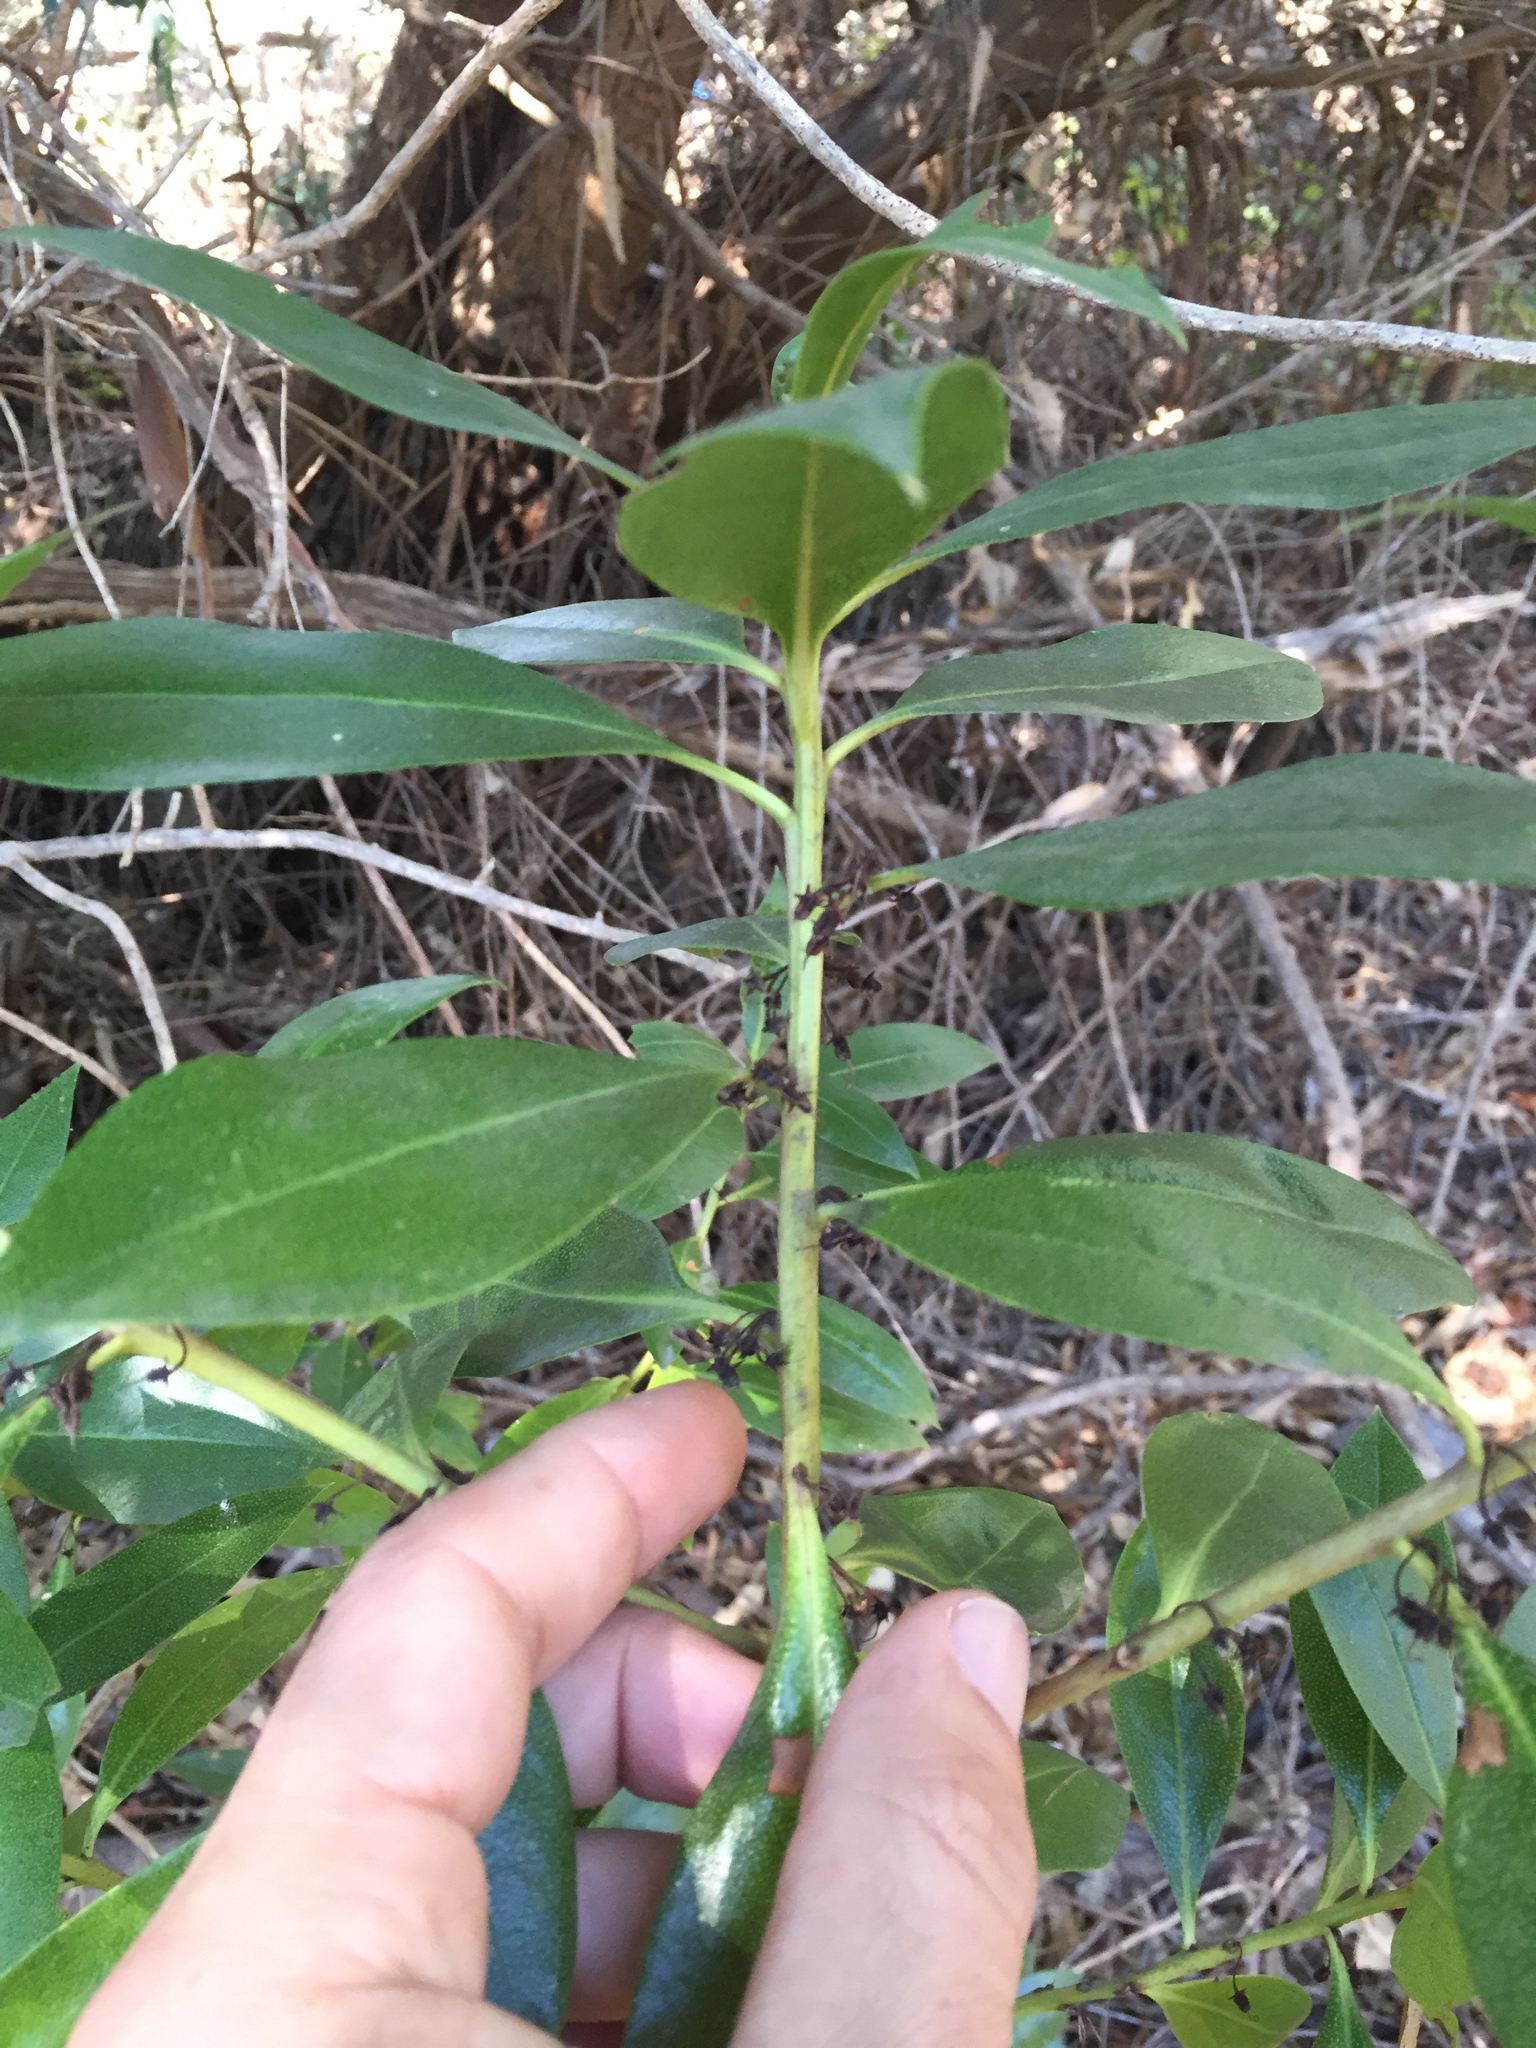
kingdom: Plantae
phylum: Tracheophyta
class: Magnoliopsida
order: Lamiales
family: Scrophulariaceae
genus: Myoporum
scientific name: Myoporum laetum
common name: Ngaio tree
